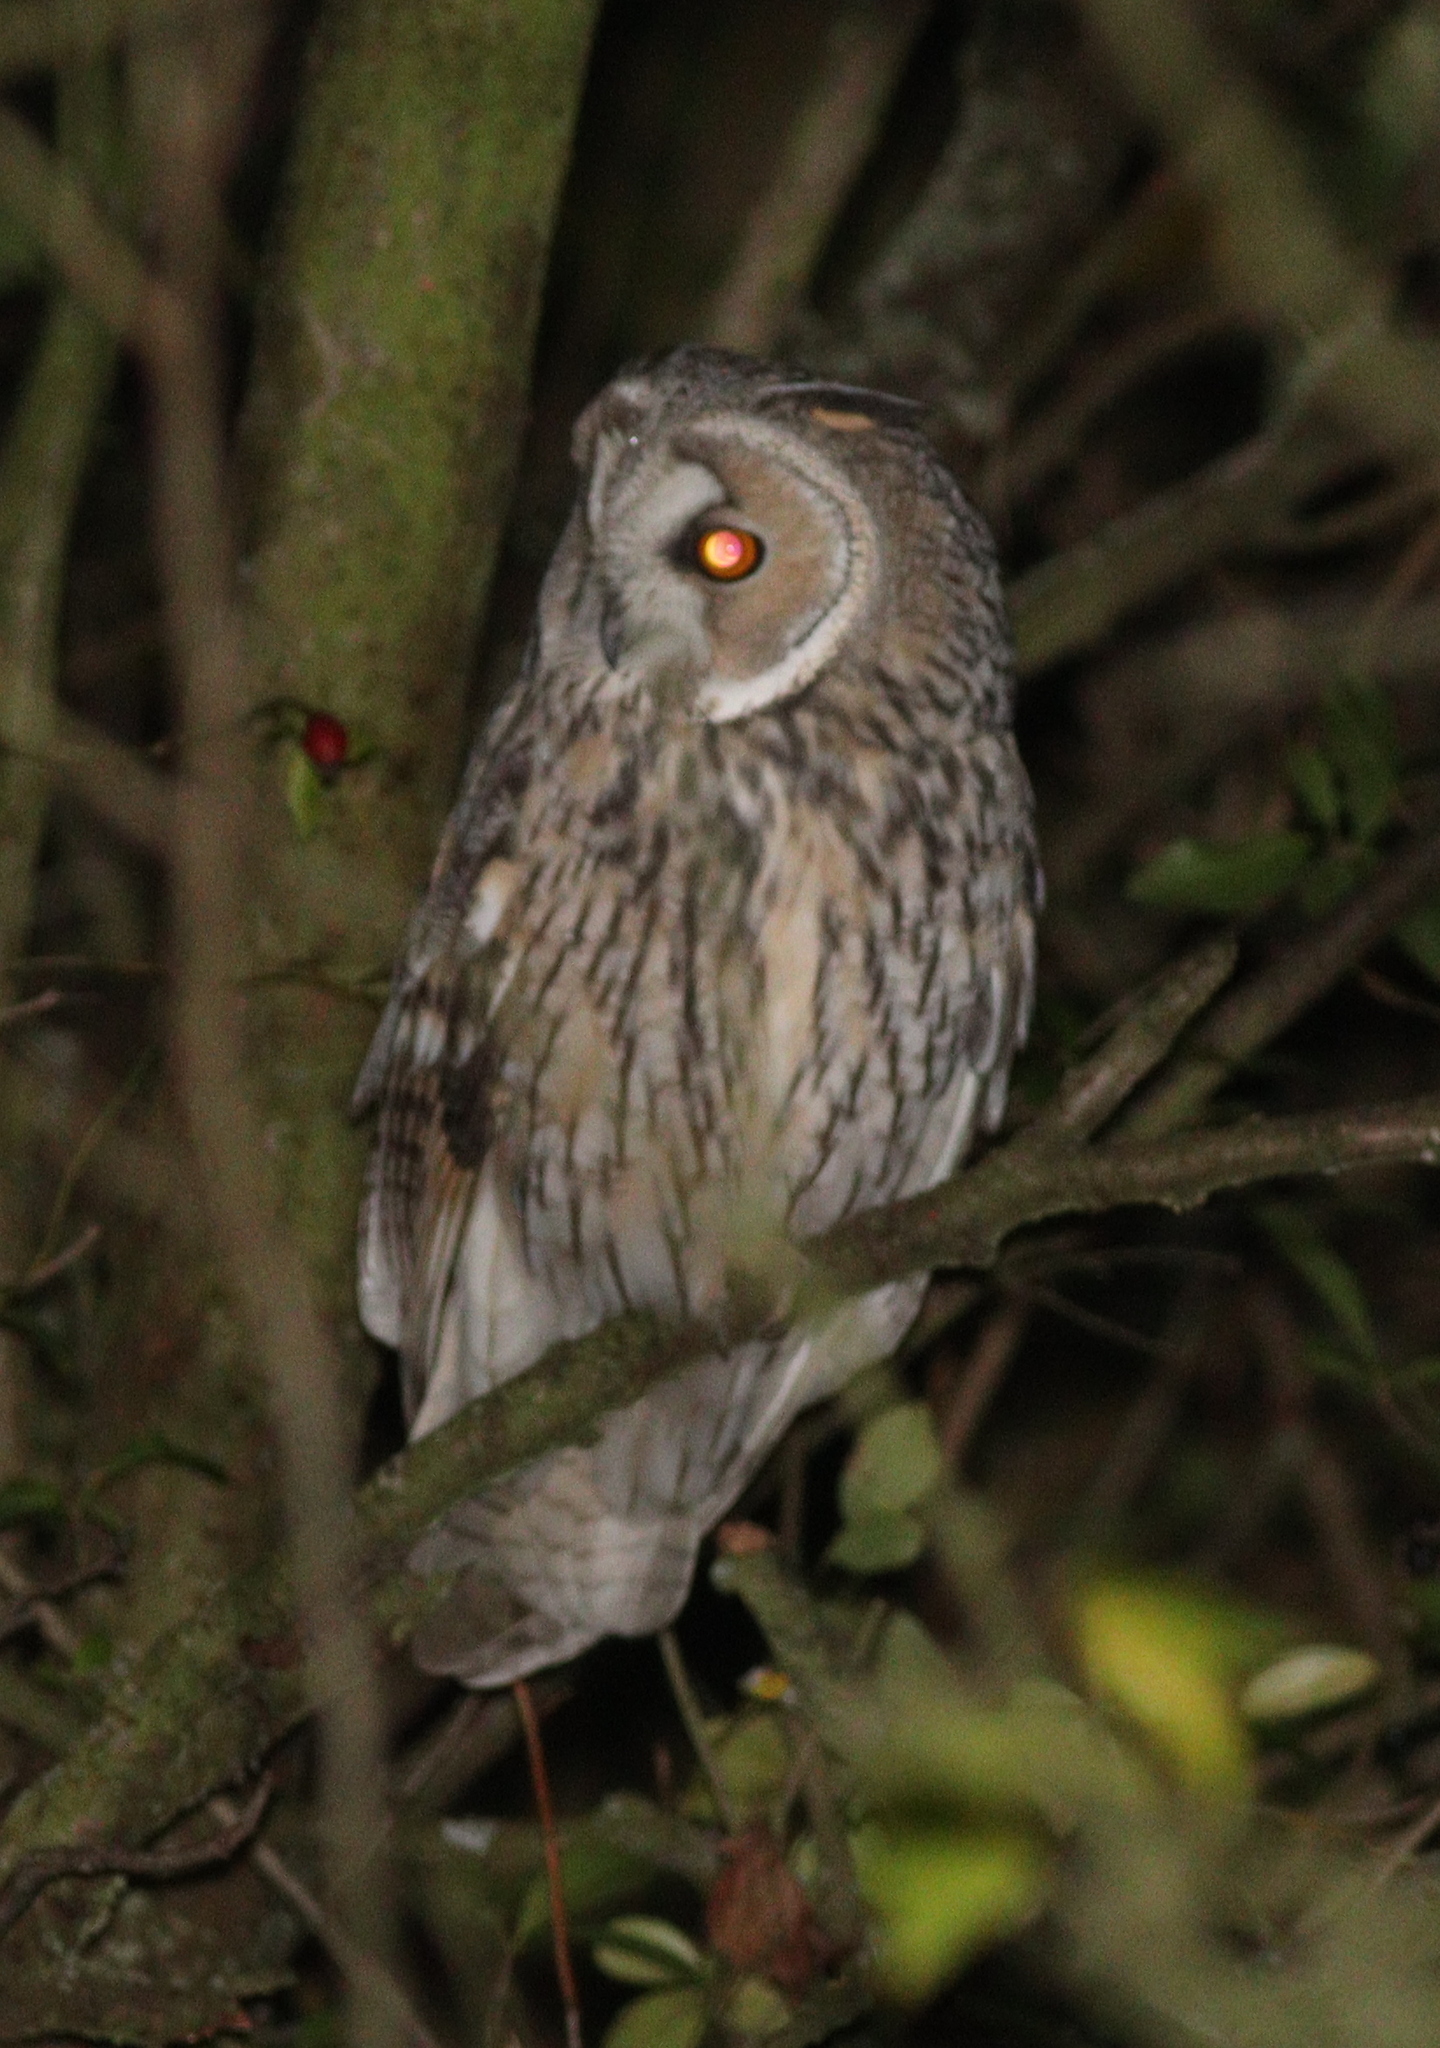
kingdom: Animalia
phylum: Chordata
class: Aves
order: Strigiformes
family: Strigidae
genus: Asio
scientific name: Asio otus
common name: Long-eared owl
